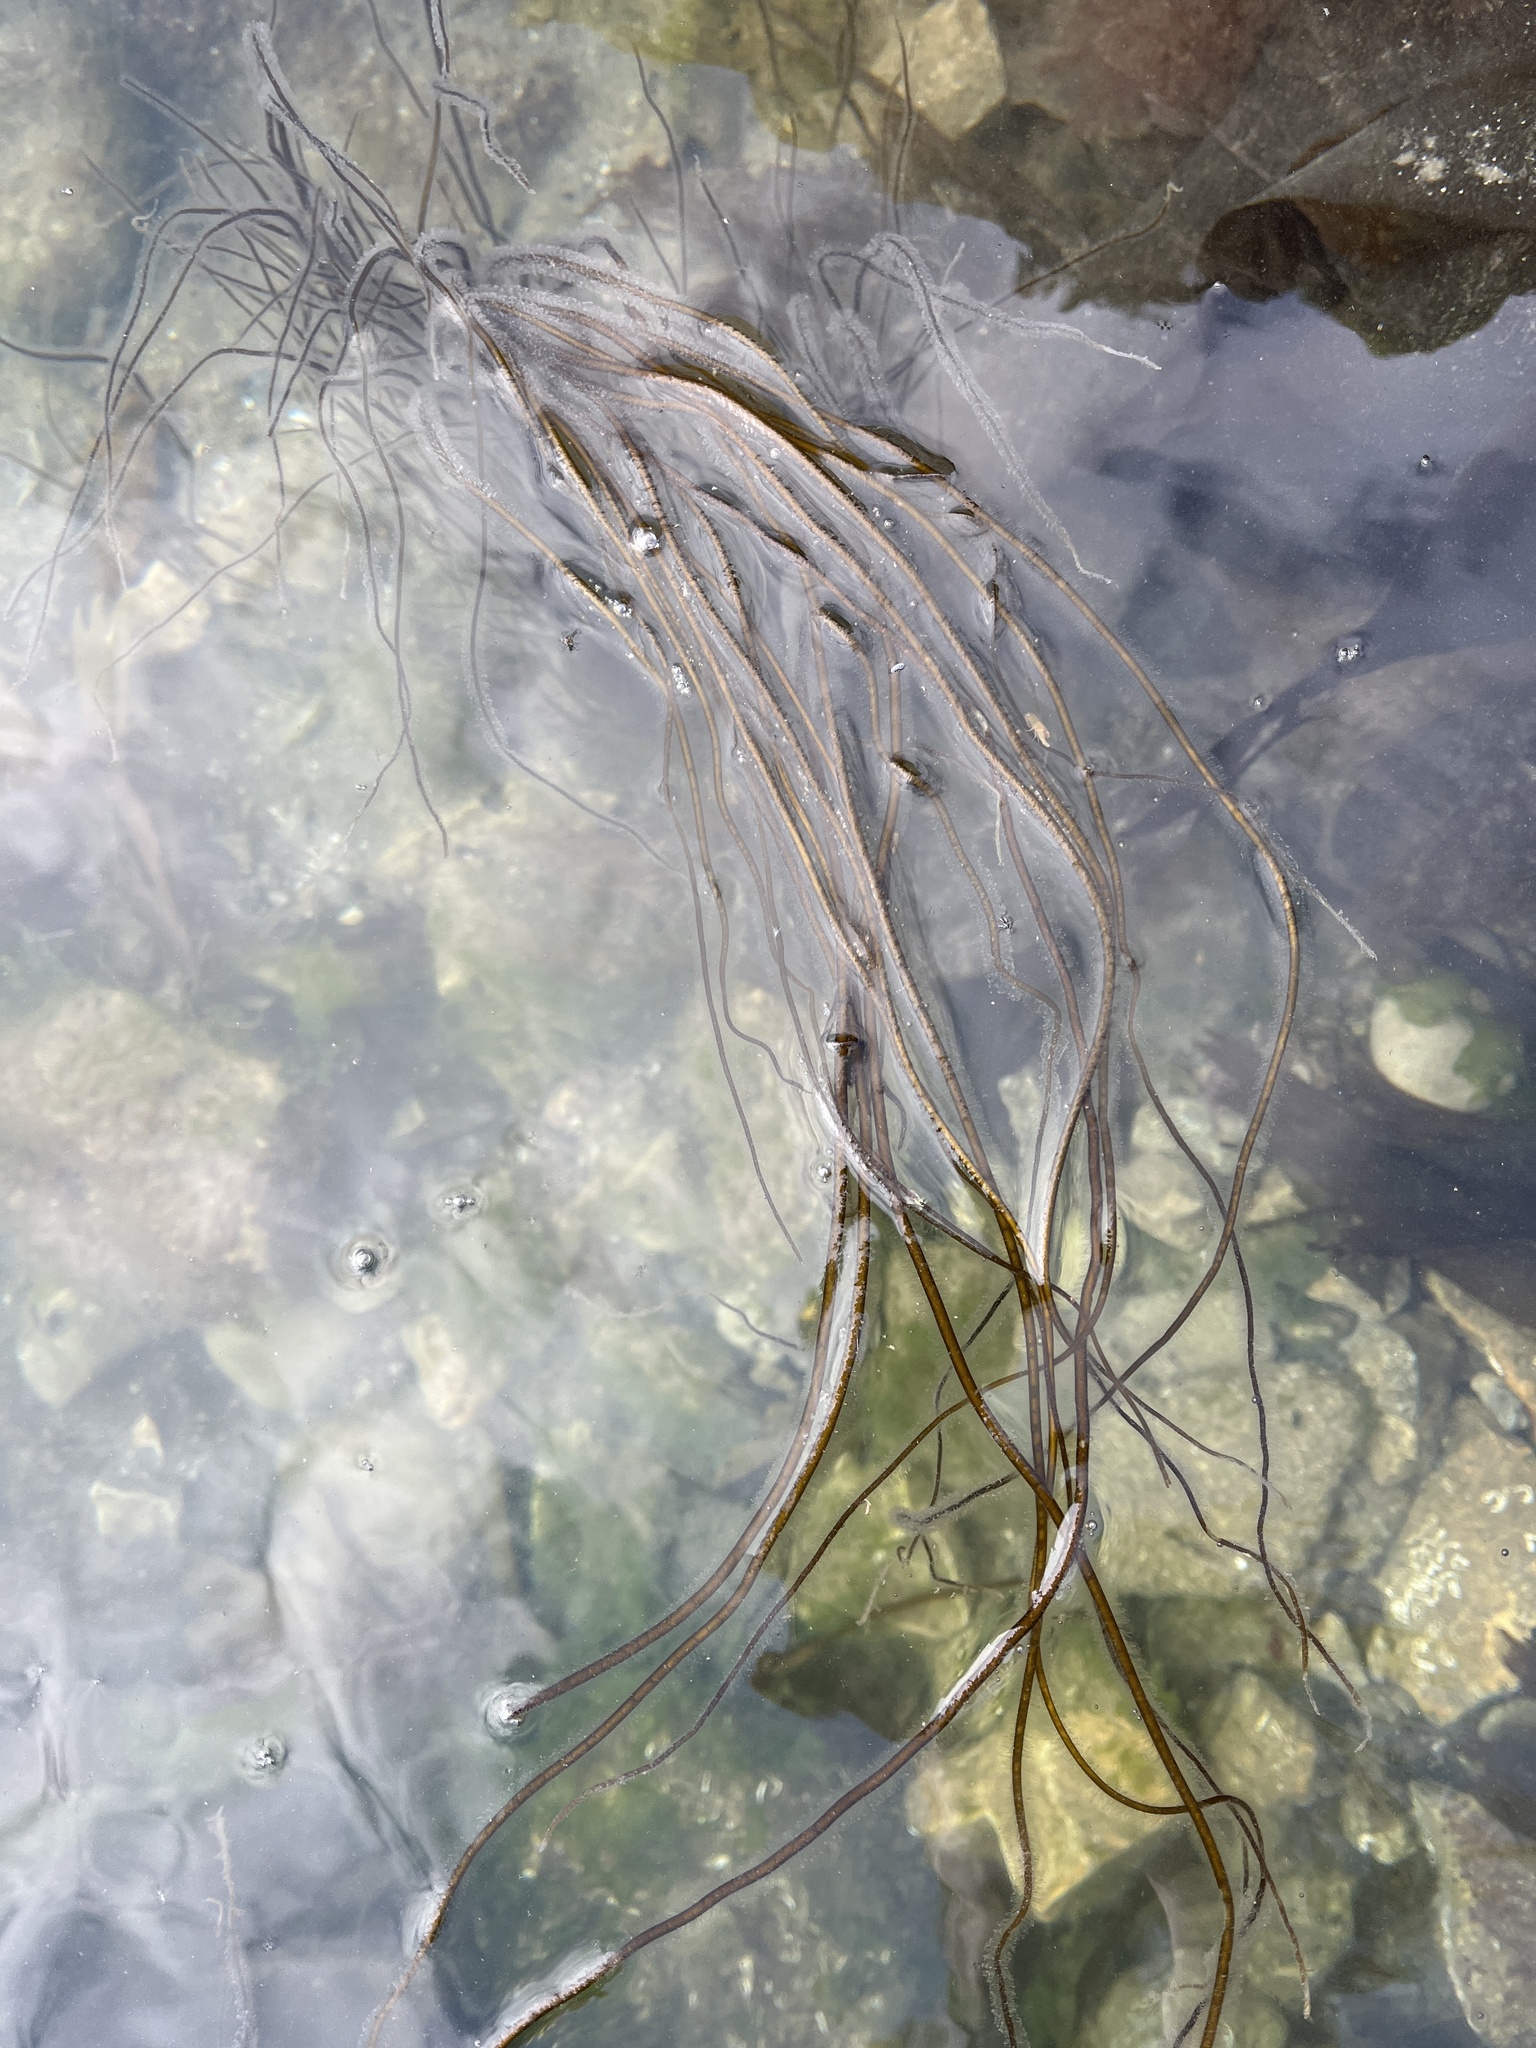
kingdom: Chromista
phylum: Ochrophyta
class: Phaeophyceae
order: Laminariales
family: Chordaceae
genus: Chorda
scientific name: Chorda filum
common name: Mermaid's tresses
